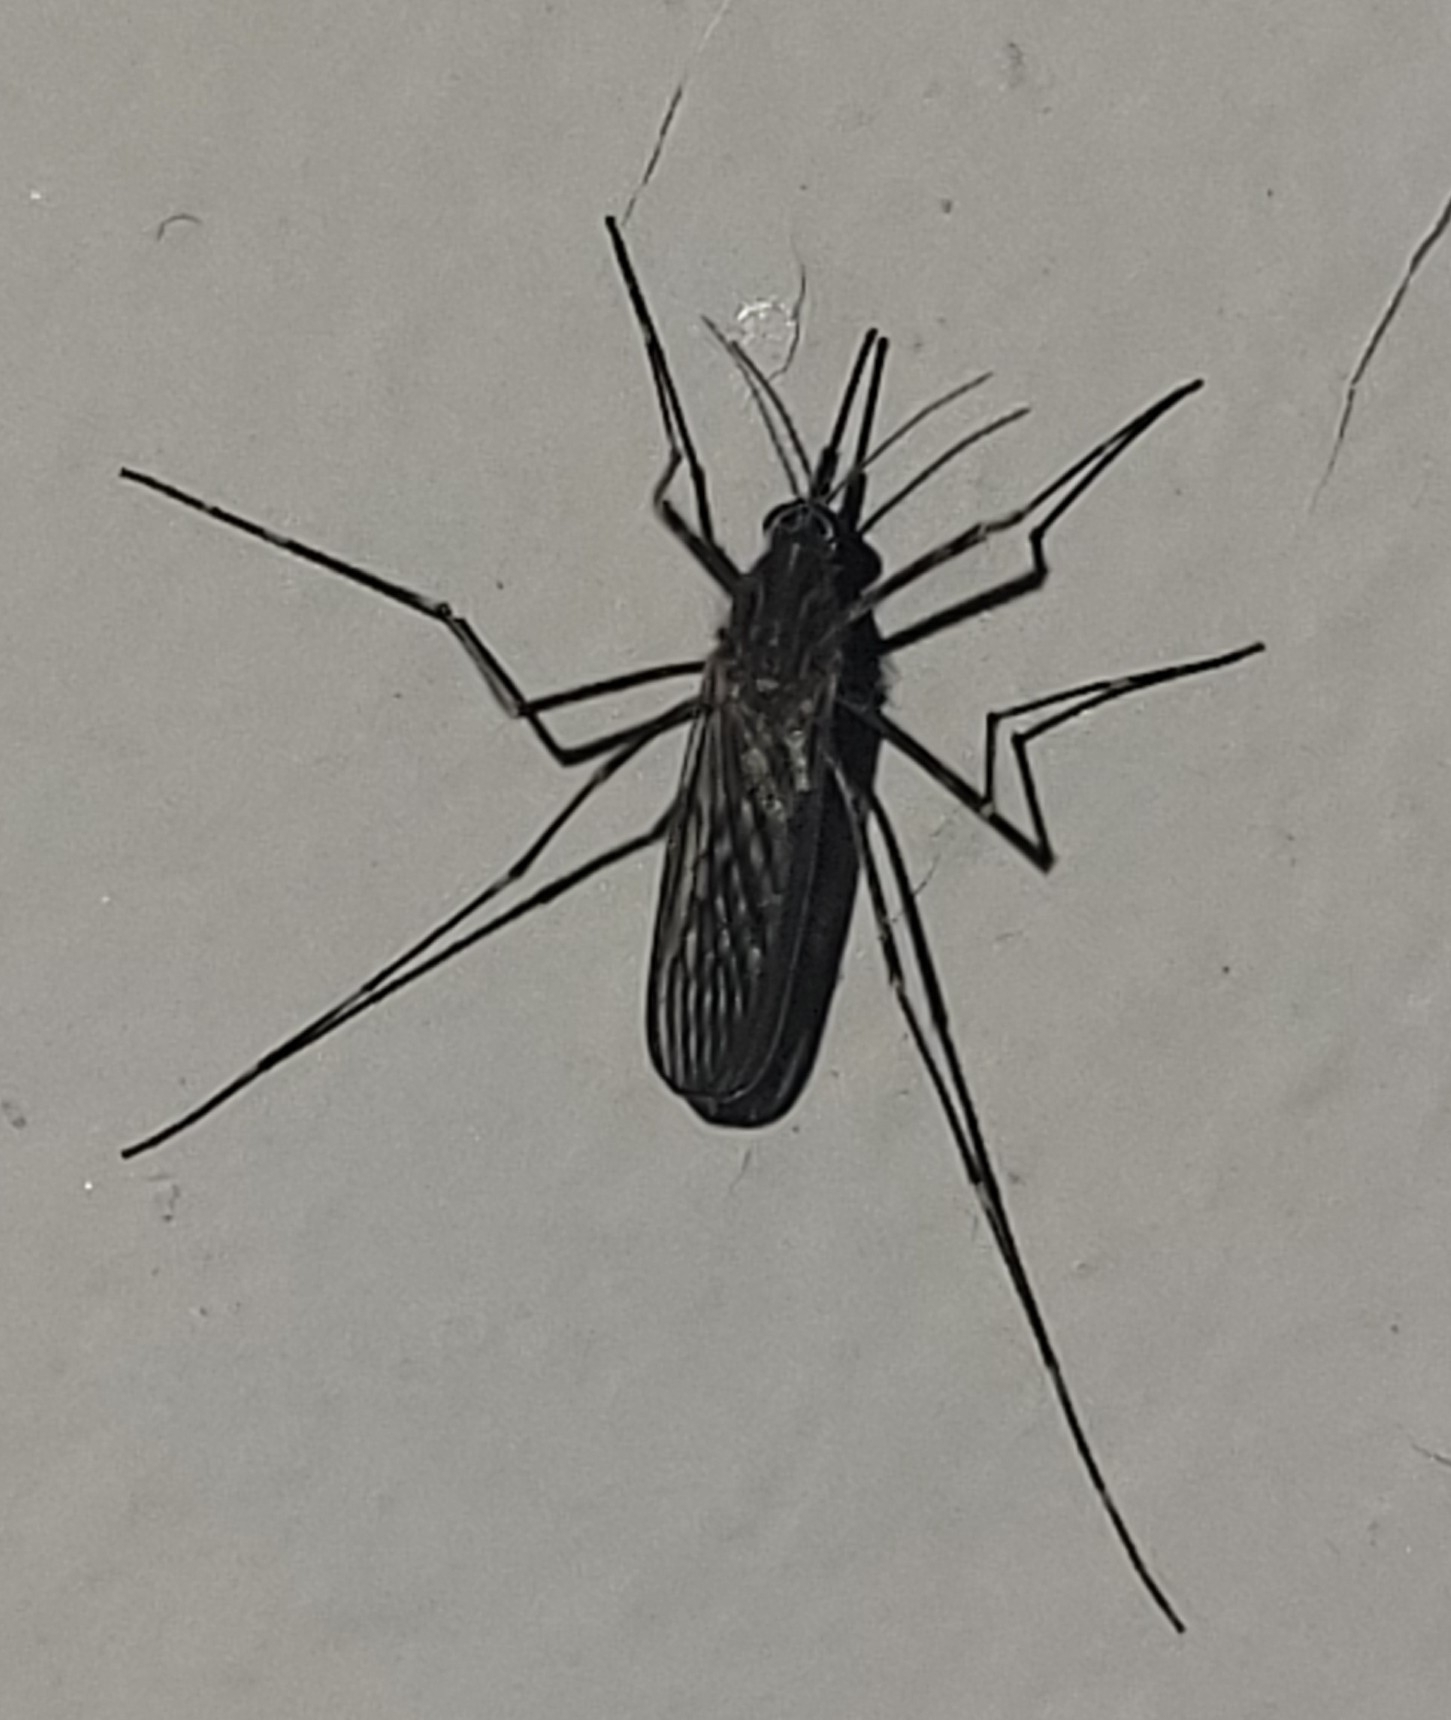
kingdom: Animalia
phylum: Arthropoda
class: Insecta
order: Diptera
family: Culicidae
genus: Culiseta
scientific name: Culiseta longiareolata
